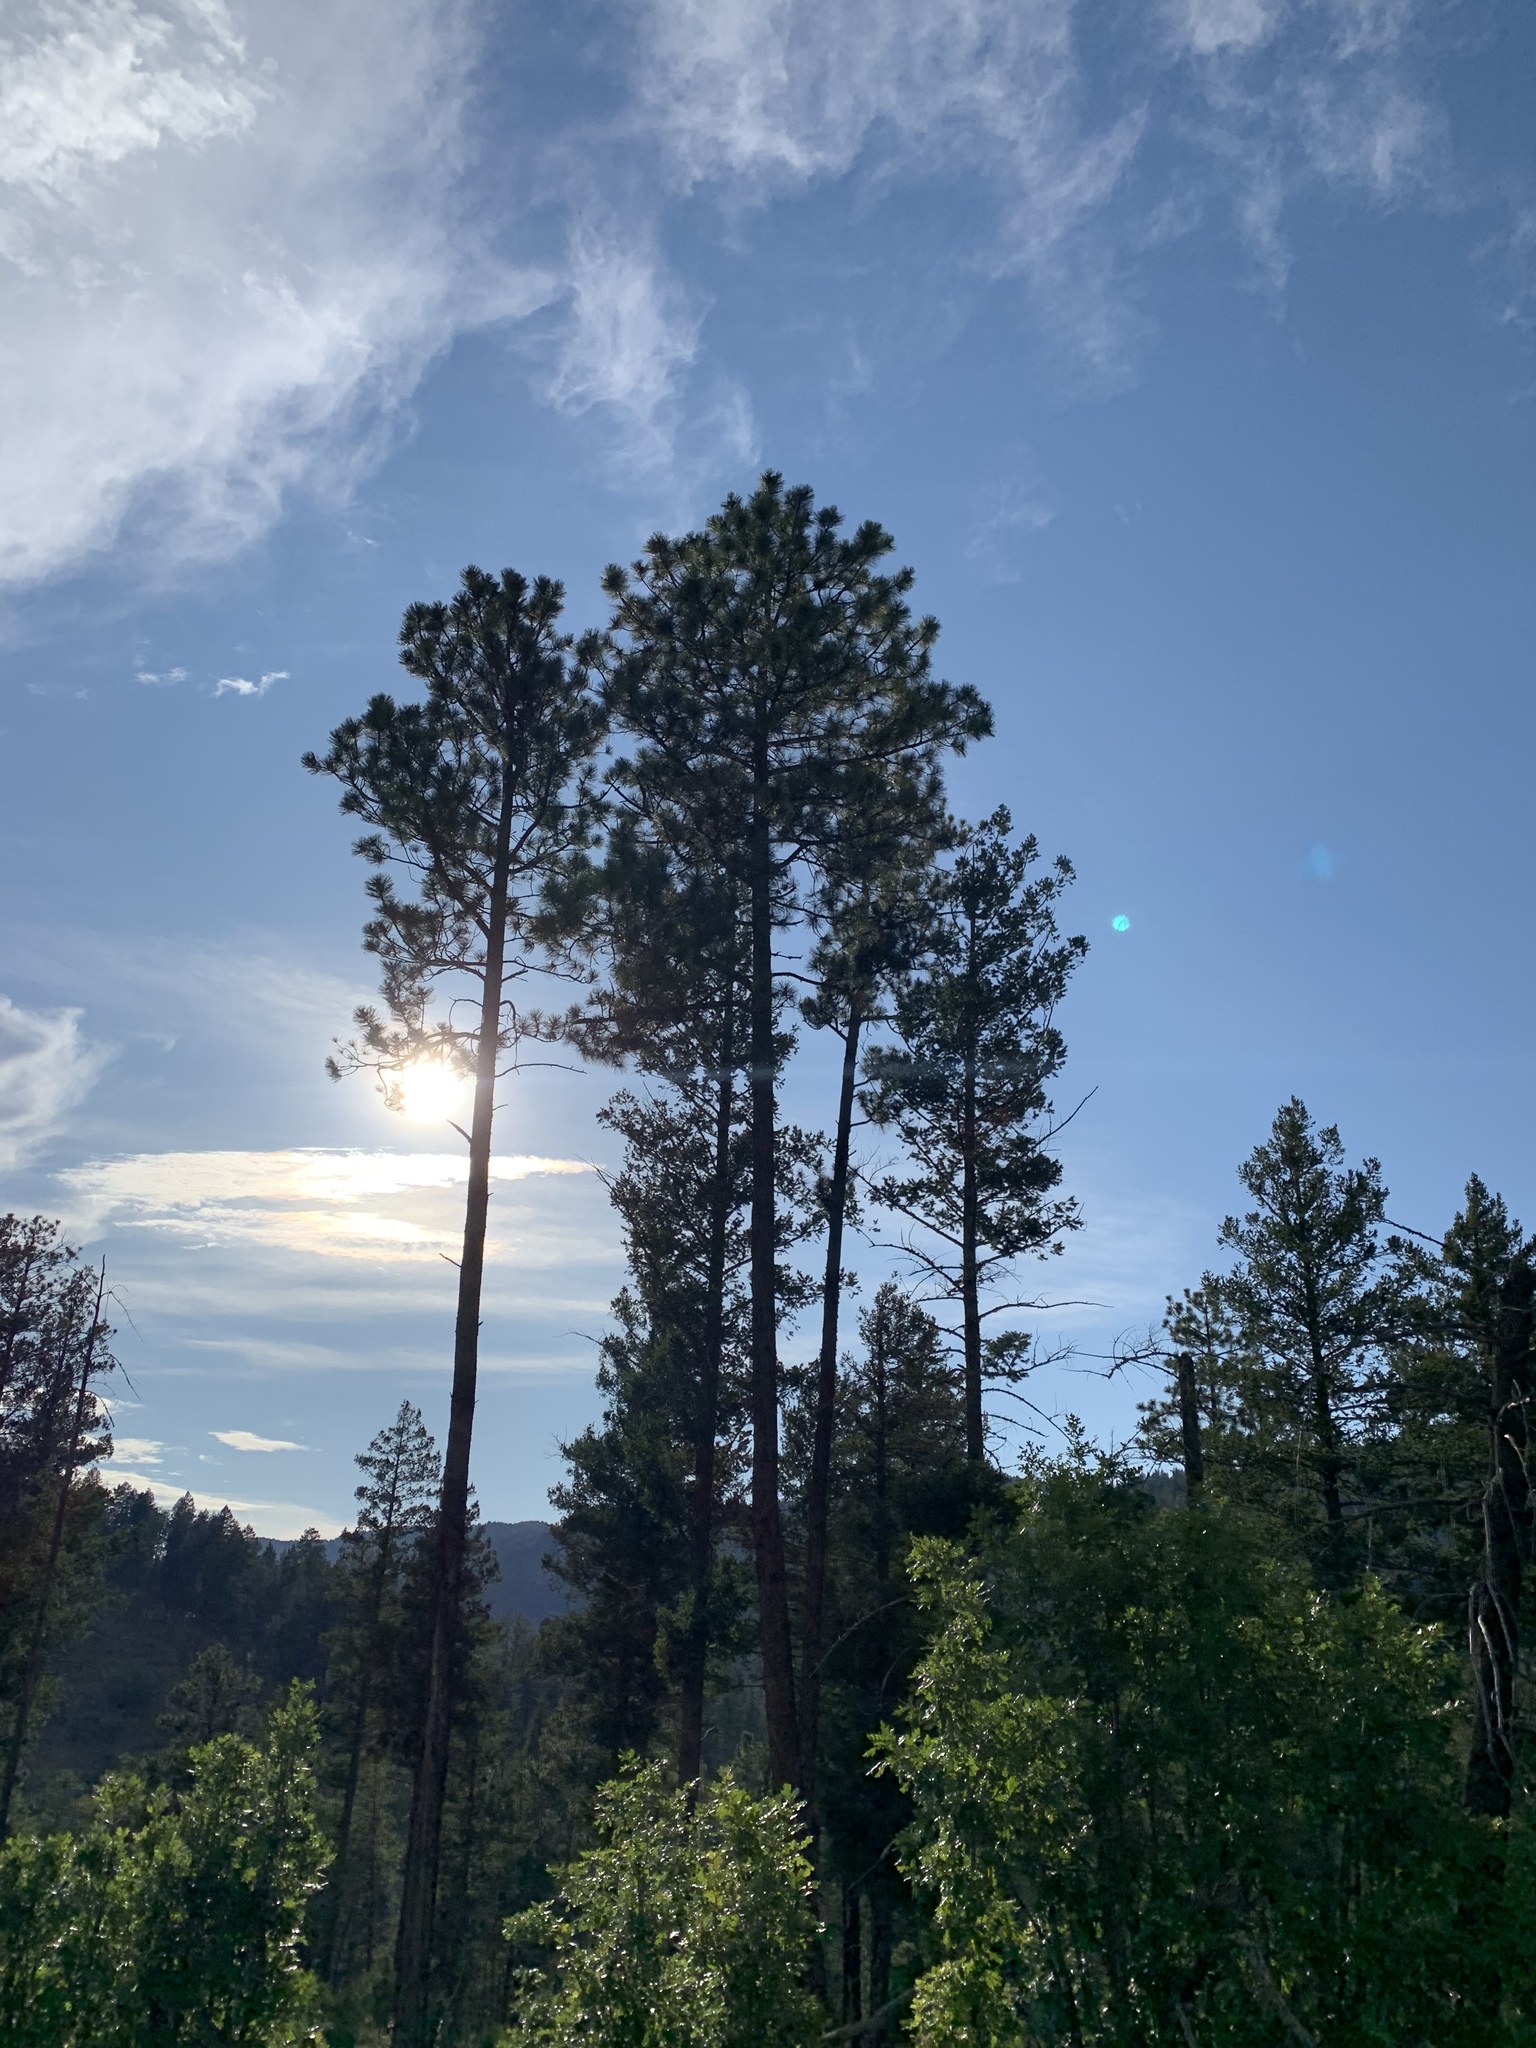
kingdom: Plantae
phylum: Tracheophyta
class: Pinopsida
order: Pinales
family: Pinaceae
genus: Pinus
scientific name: Pinus ponderosa
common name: Western yellow-pine
